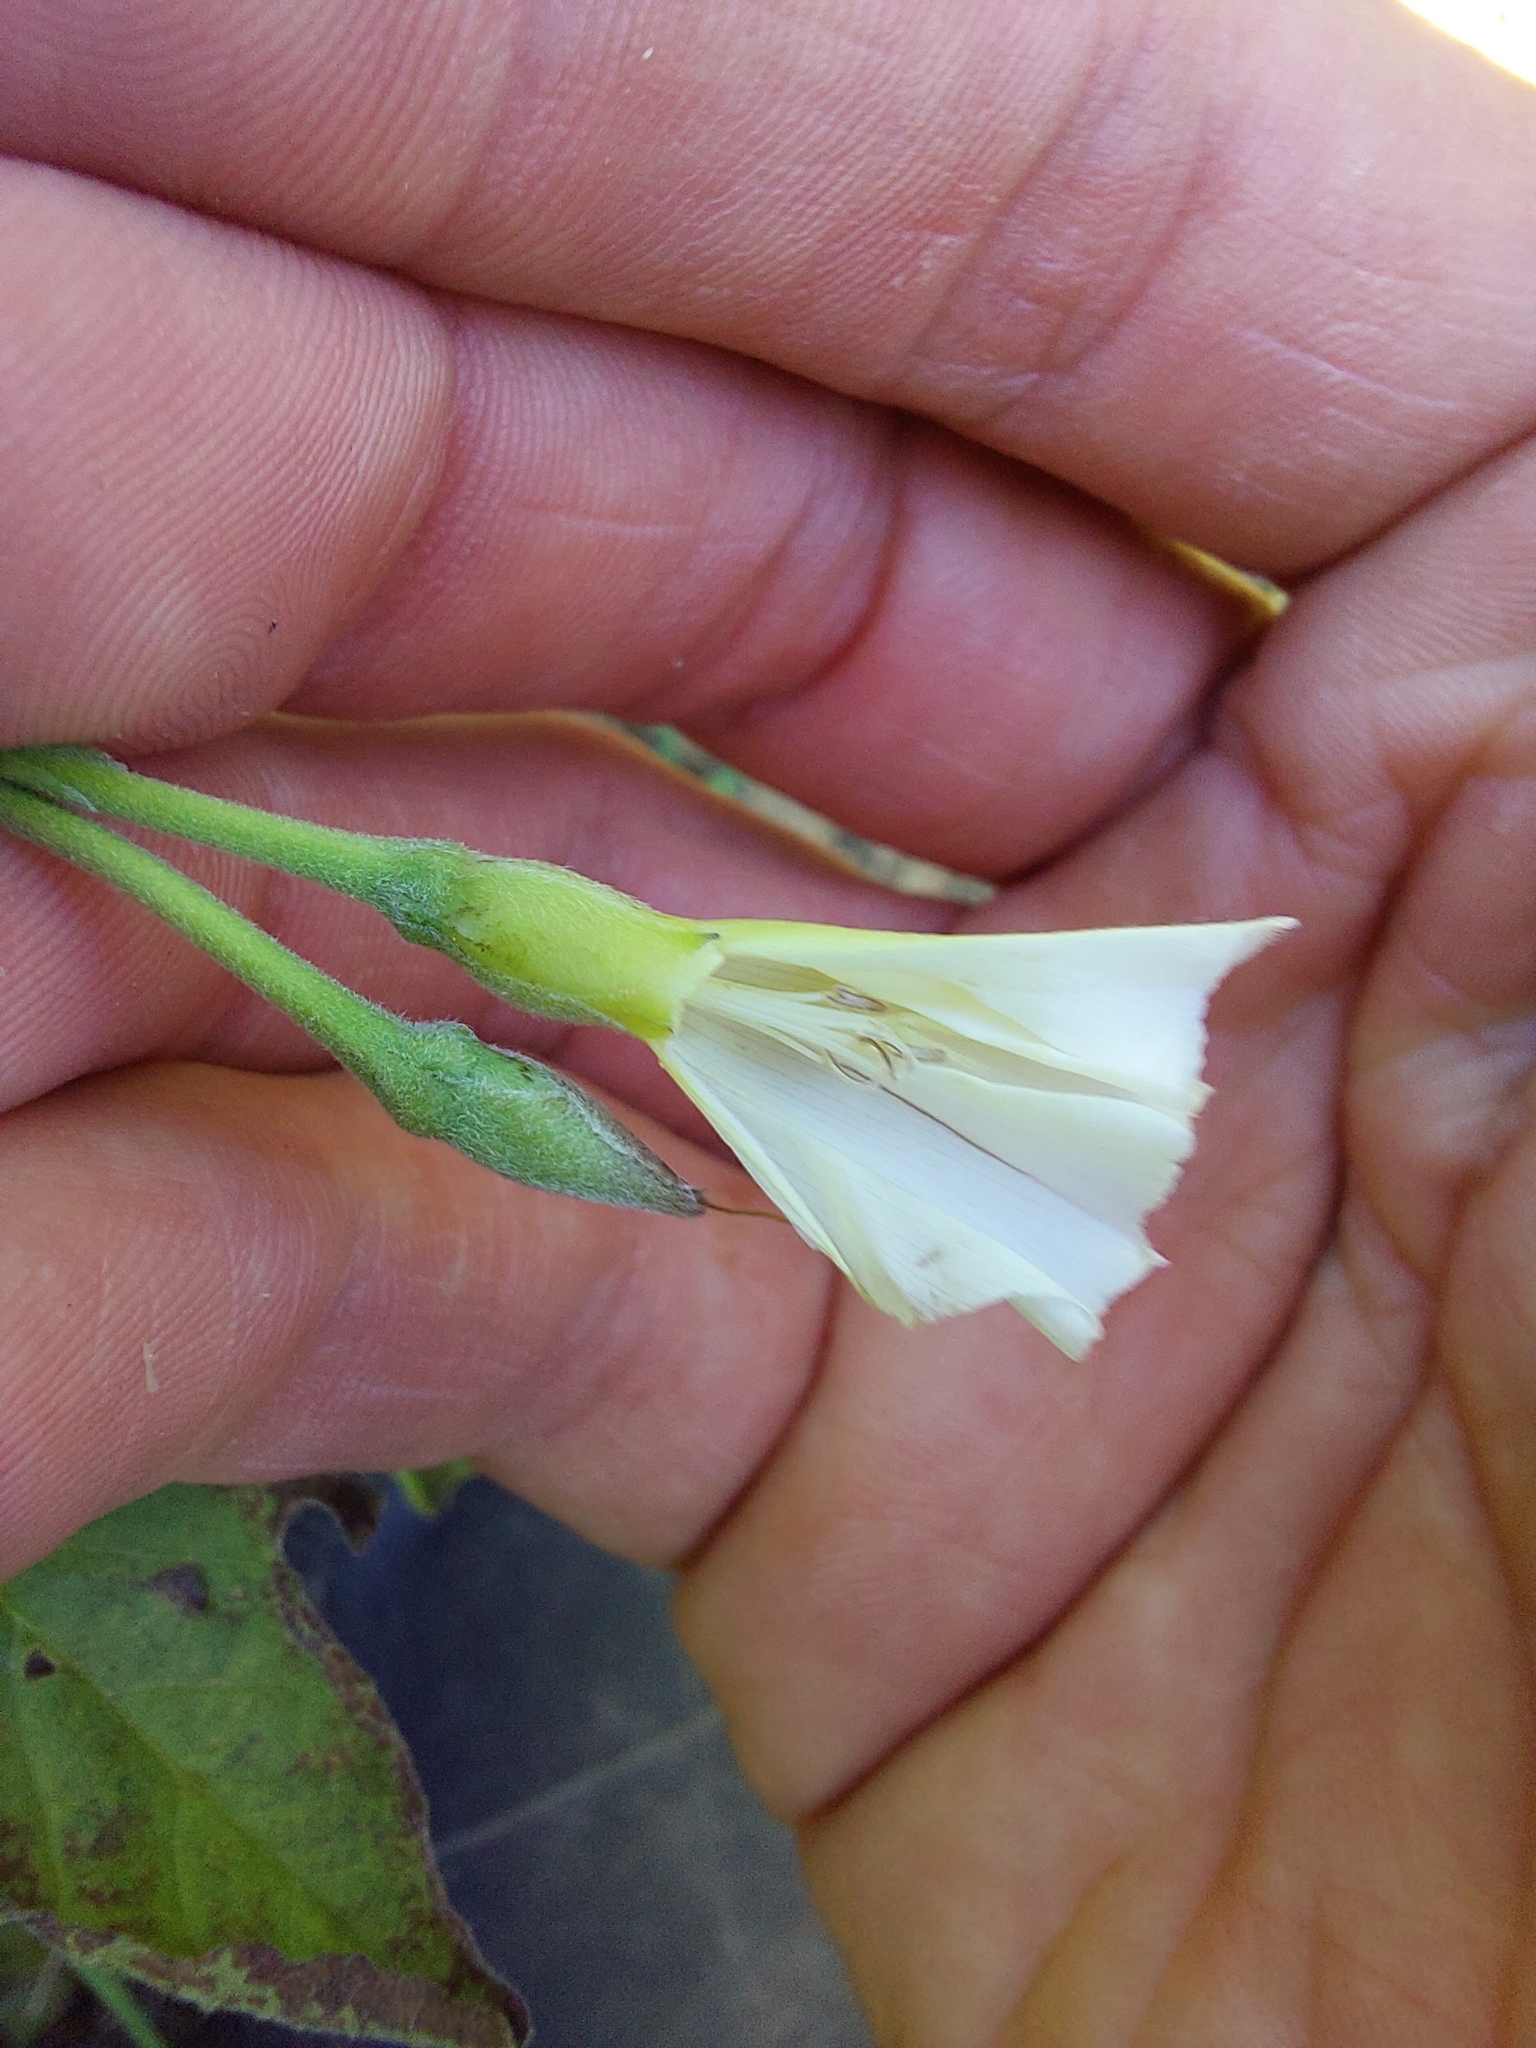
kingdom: Plantae
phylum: Tracheophyta
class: Magnoliopsida
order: Solanales
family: Convolvulaceae
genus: Convolvulus
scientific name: Convolvulus crenatifolius
